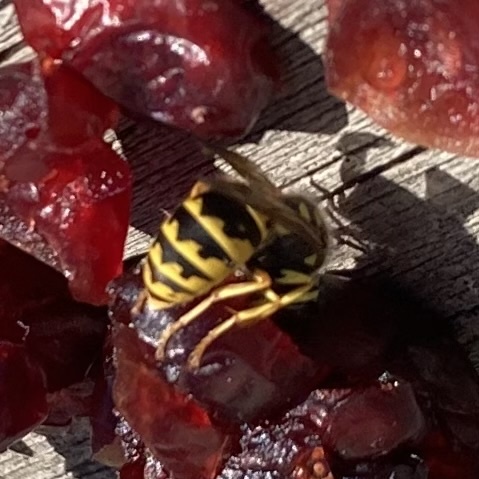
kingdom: Animalia
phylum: Arthropoda
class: Insecta
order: Hymenoptera
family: Vespidae
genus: Vespula
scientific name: Vespula
